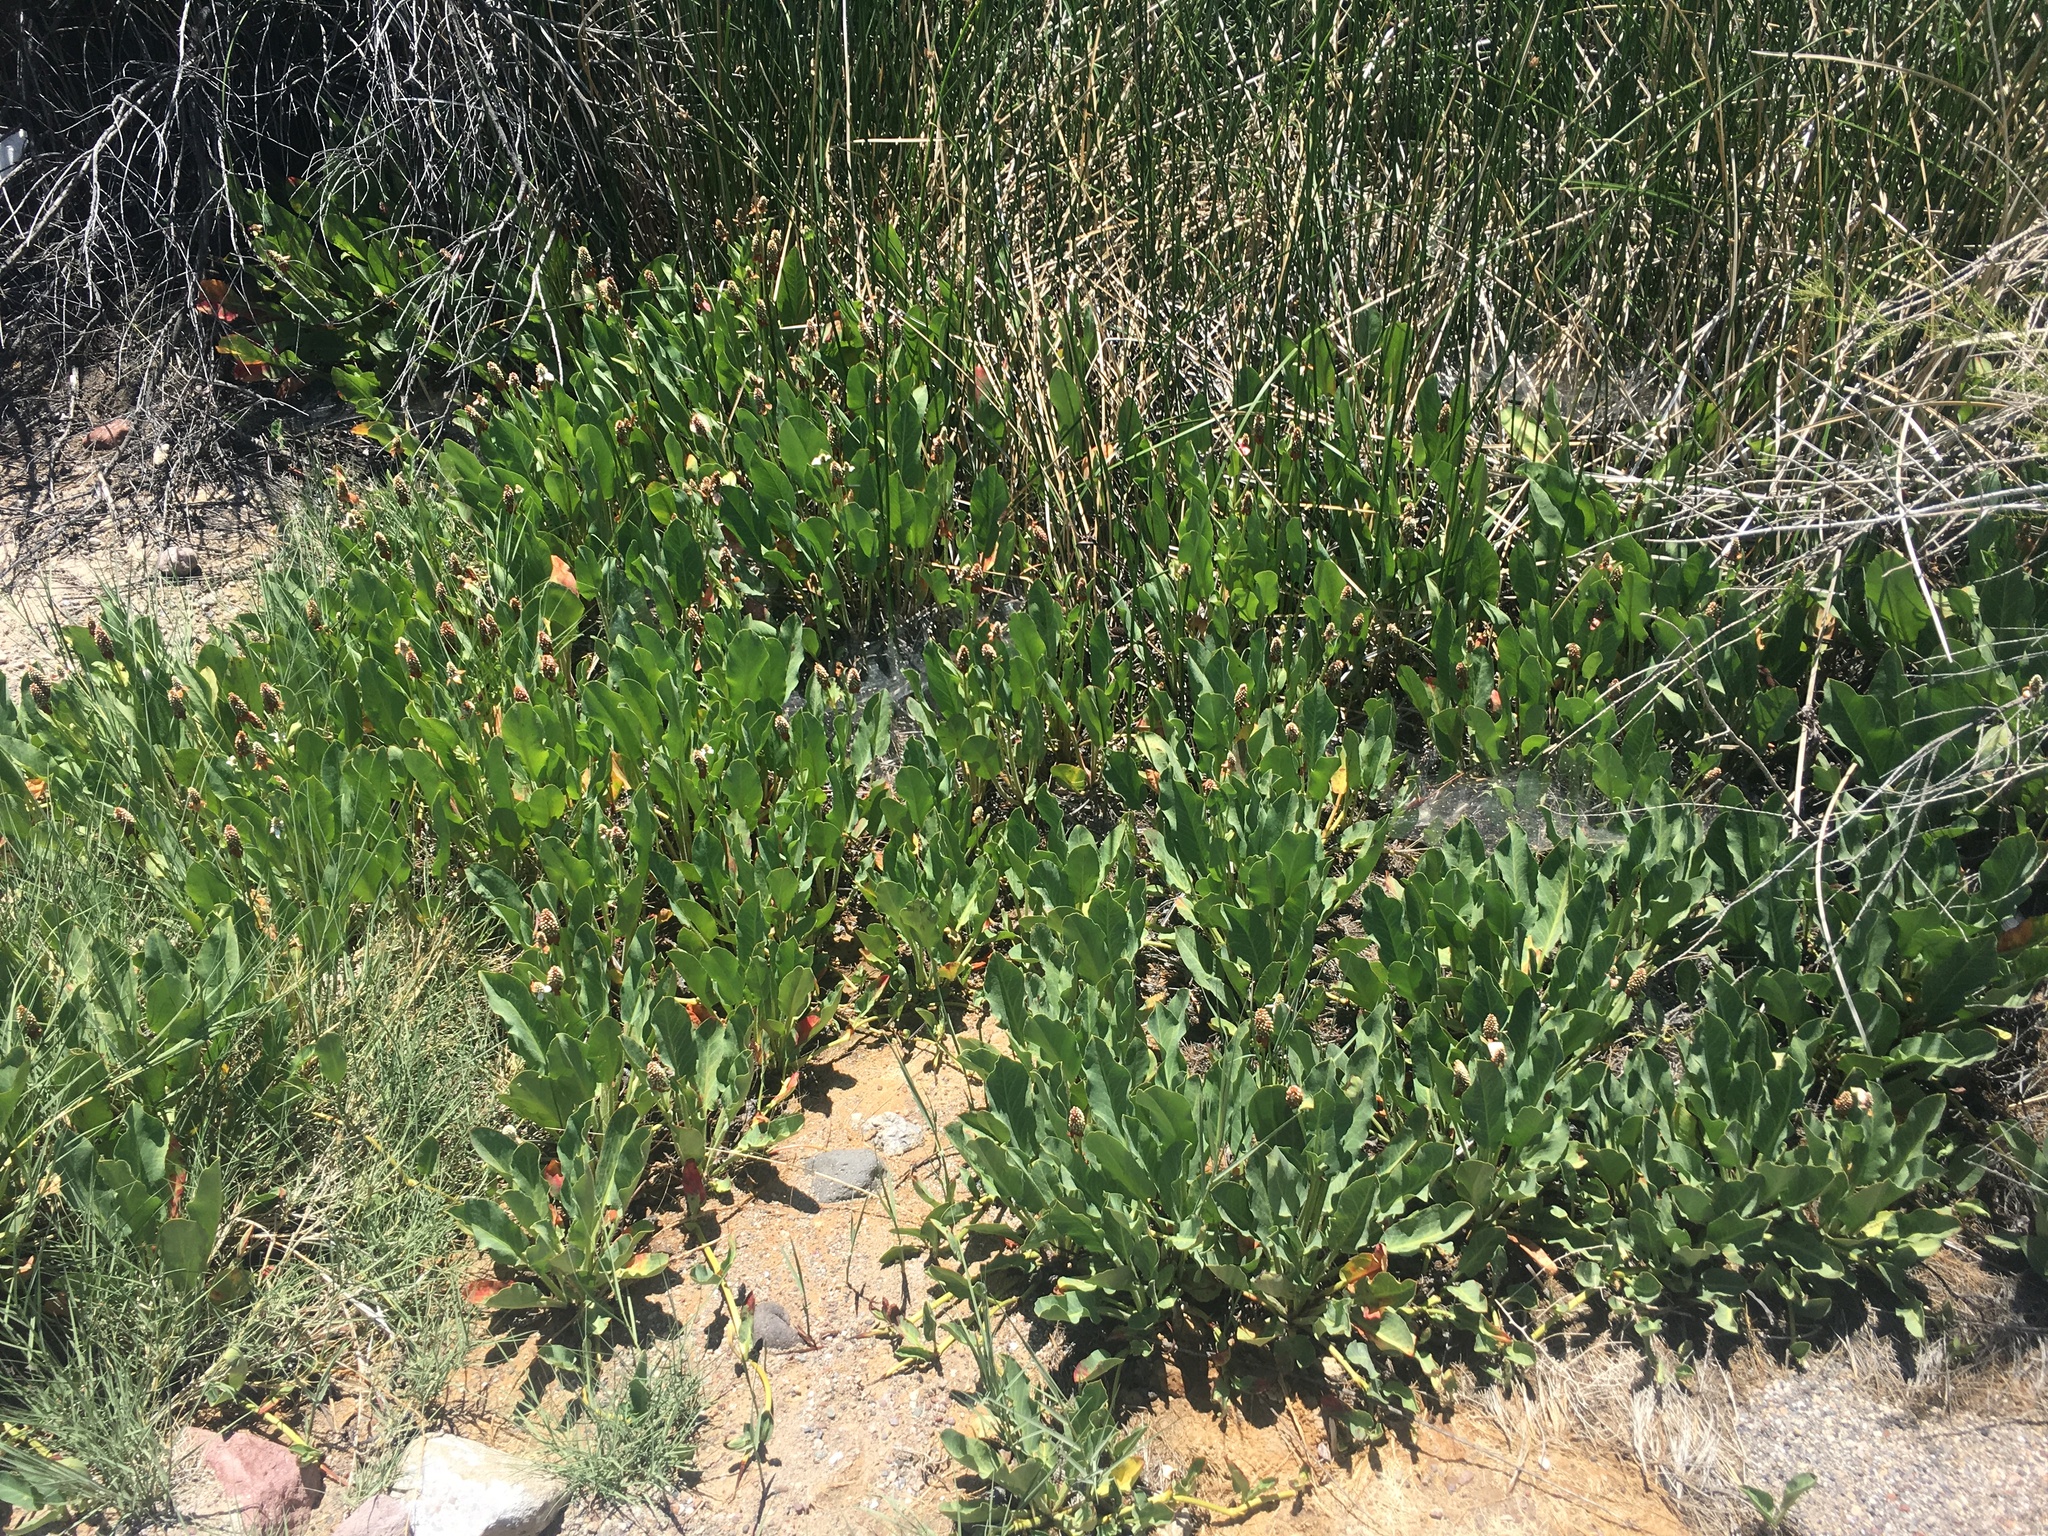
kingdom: Plantae
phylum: Tracheophyta
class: Magnoliopsida
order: Piperales
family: Saururaceae
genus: Anemopsis
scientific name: Anemopsis californica
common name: Apache-beads
